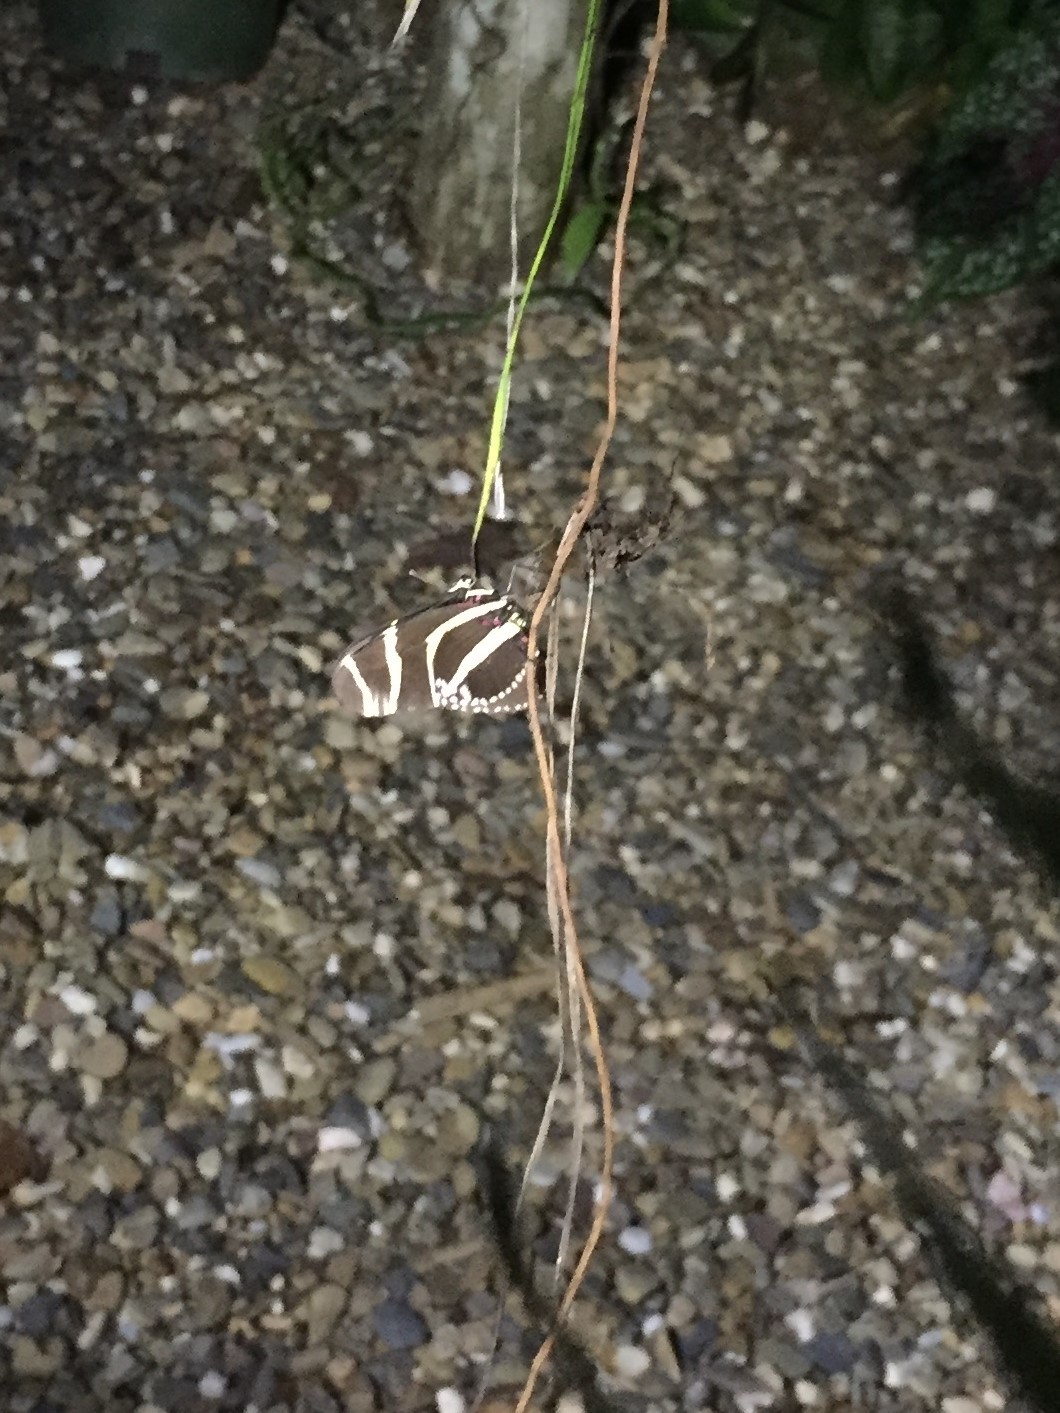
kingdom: Animalia
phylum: Arthropoda
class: Insecta
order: Lepidoptera
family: Nymphalidae
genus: Heliconius
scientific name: Heliconius charithonia
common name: Zebra long wing
